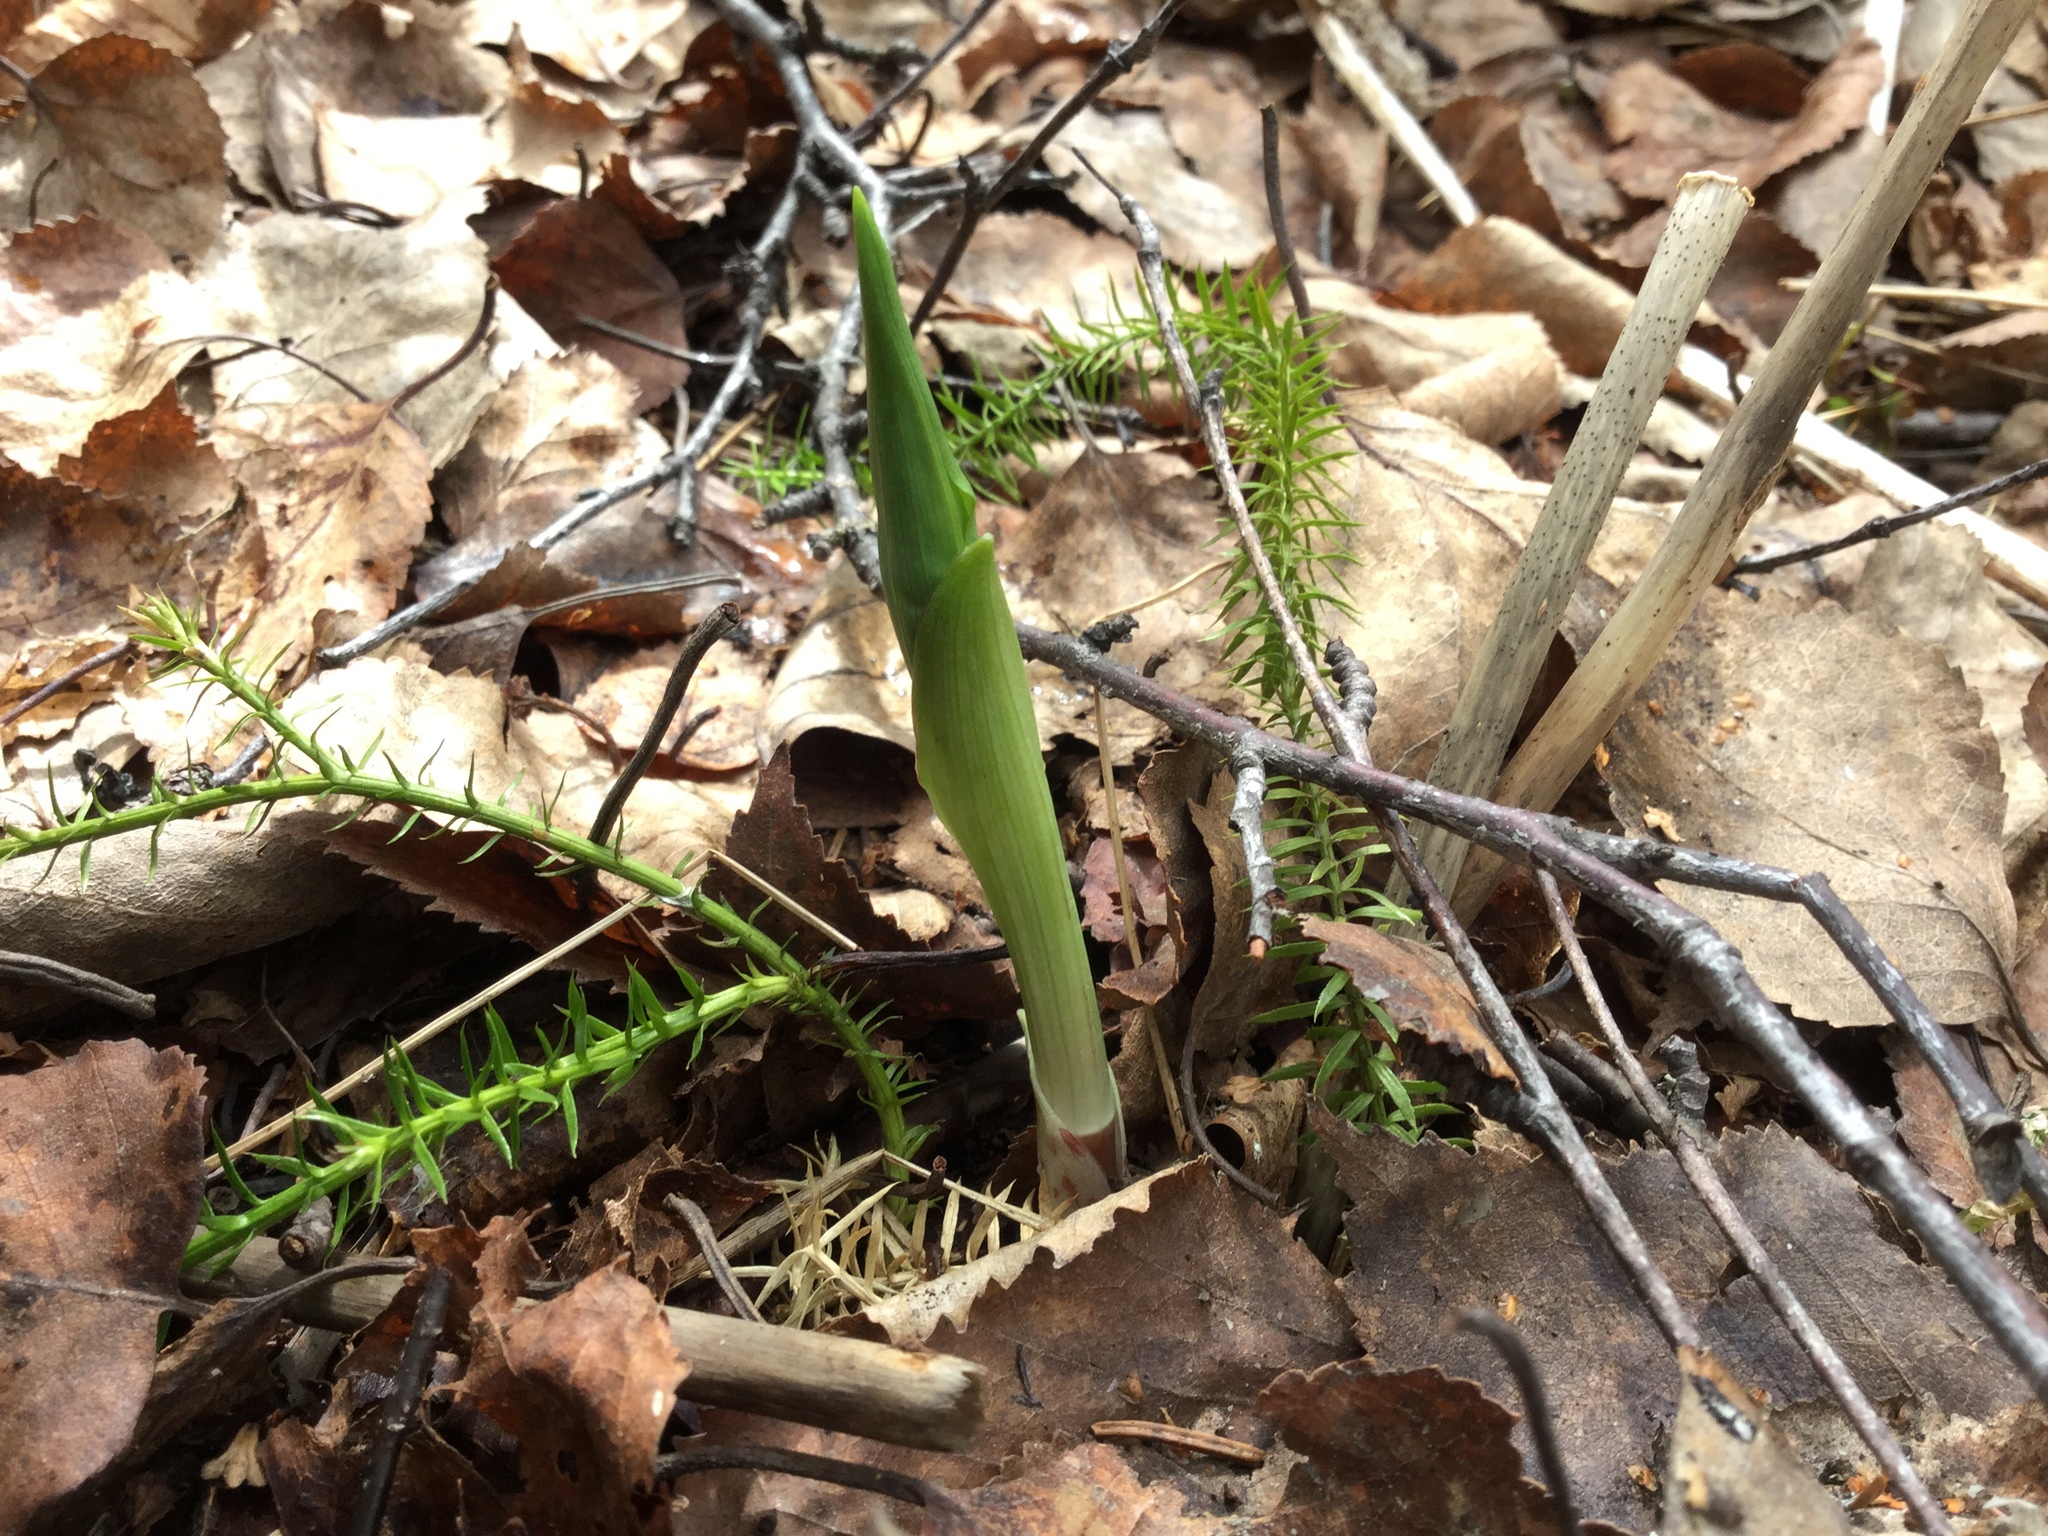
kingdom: Plantae
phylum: Tracheophyta
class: Liliopsida
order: Liliales
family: Liliaceae
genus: Streptopus
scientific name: Streptopus amplexifolius
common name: Clasp twisted stalk
